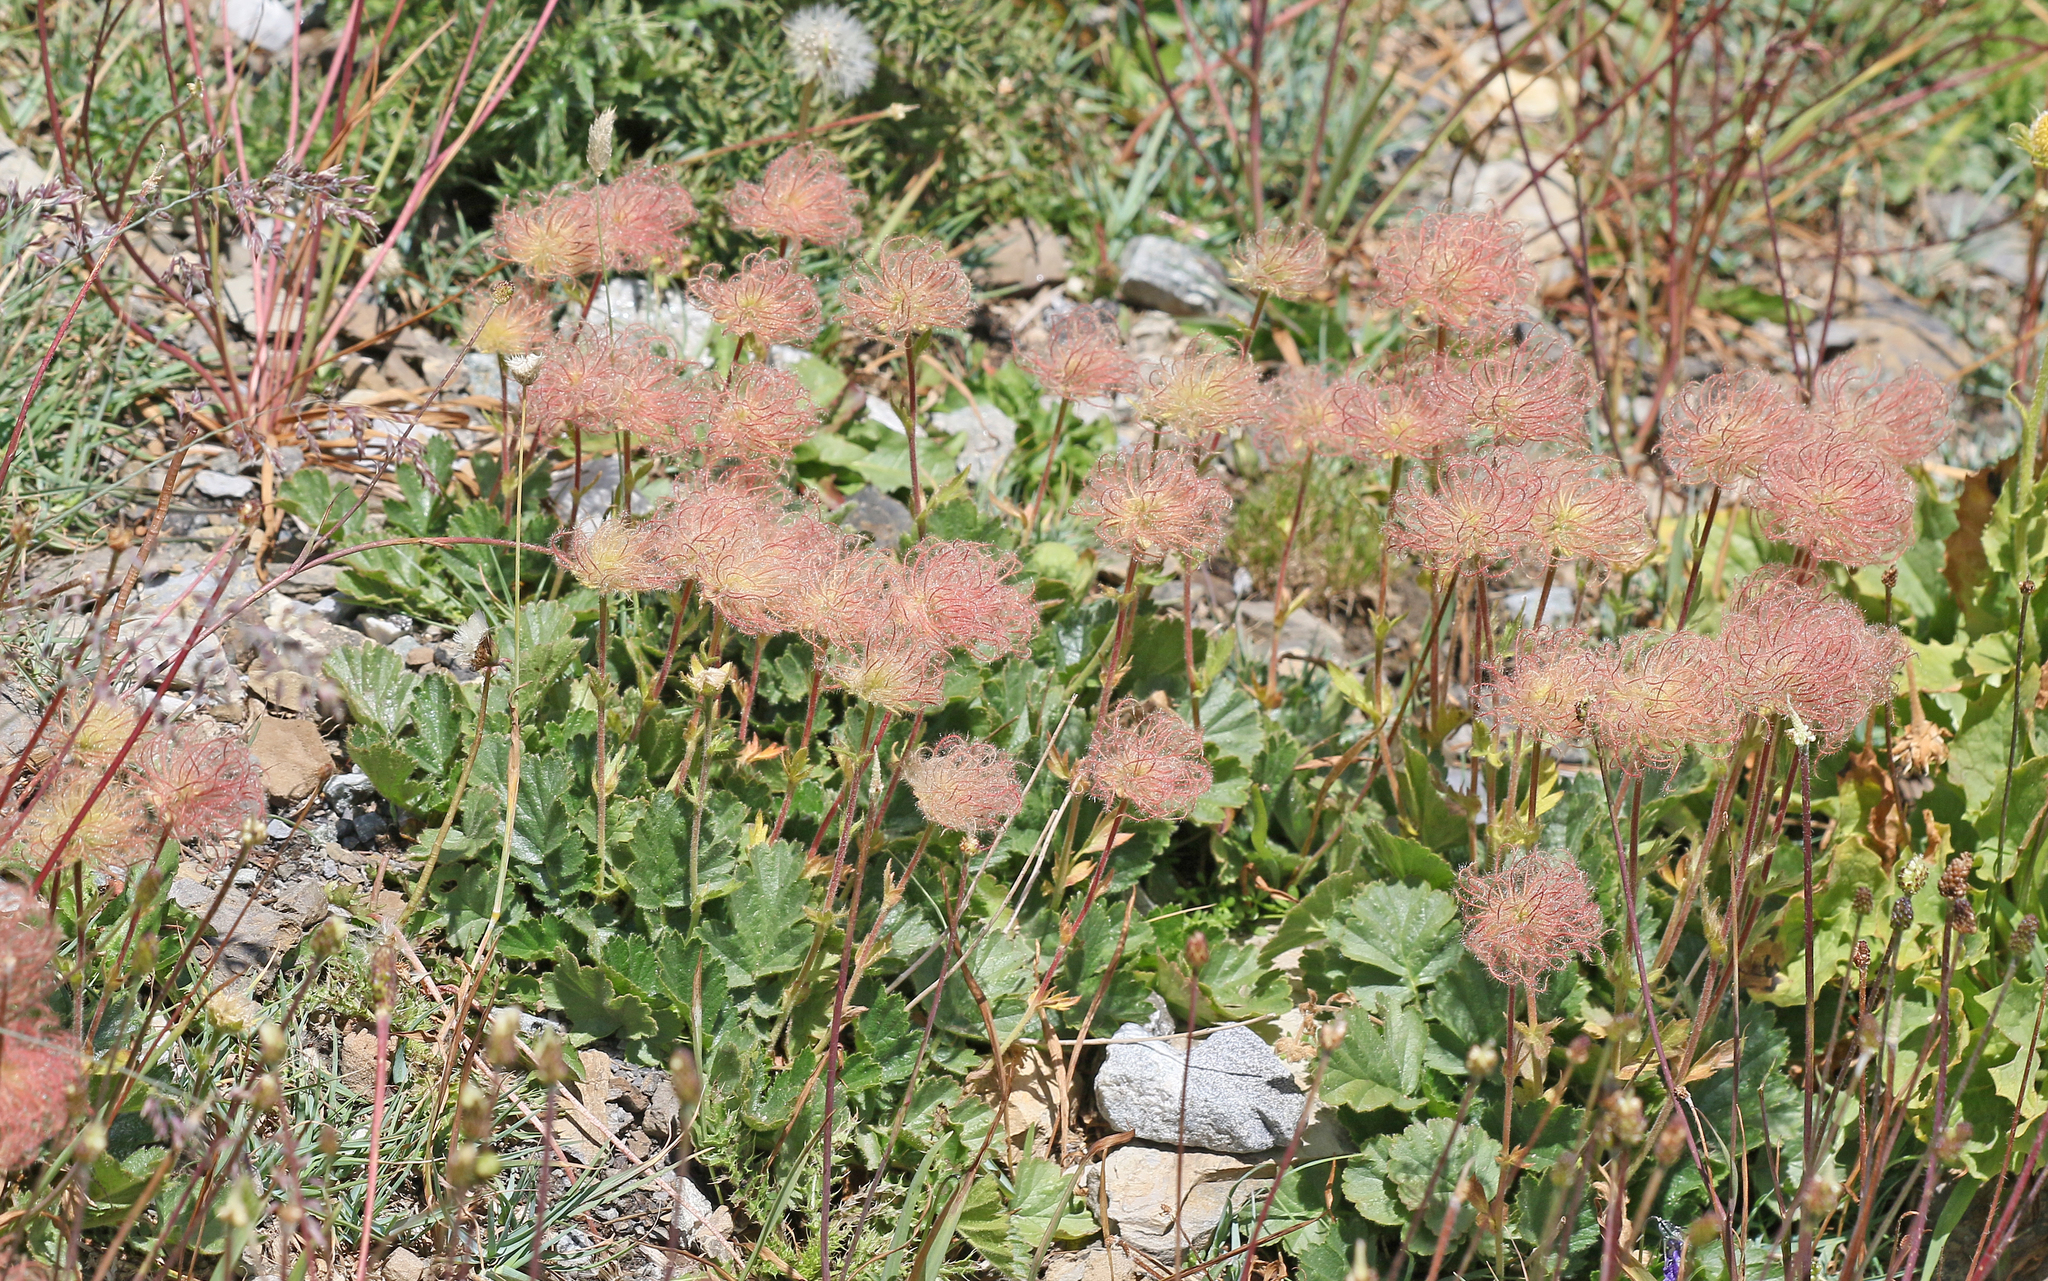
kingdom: Plantae
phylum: Tracheophyta
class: Magnoliopsida
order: Rosales
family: Rosaceae
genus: Geum
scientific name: Geum montanum
